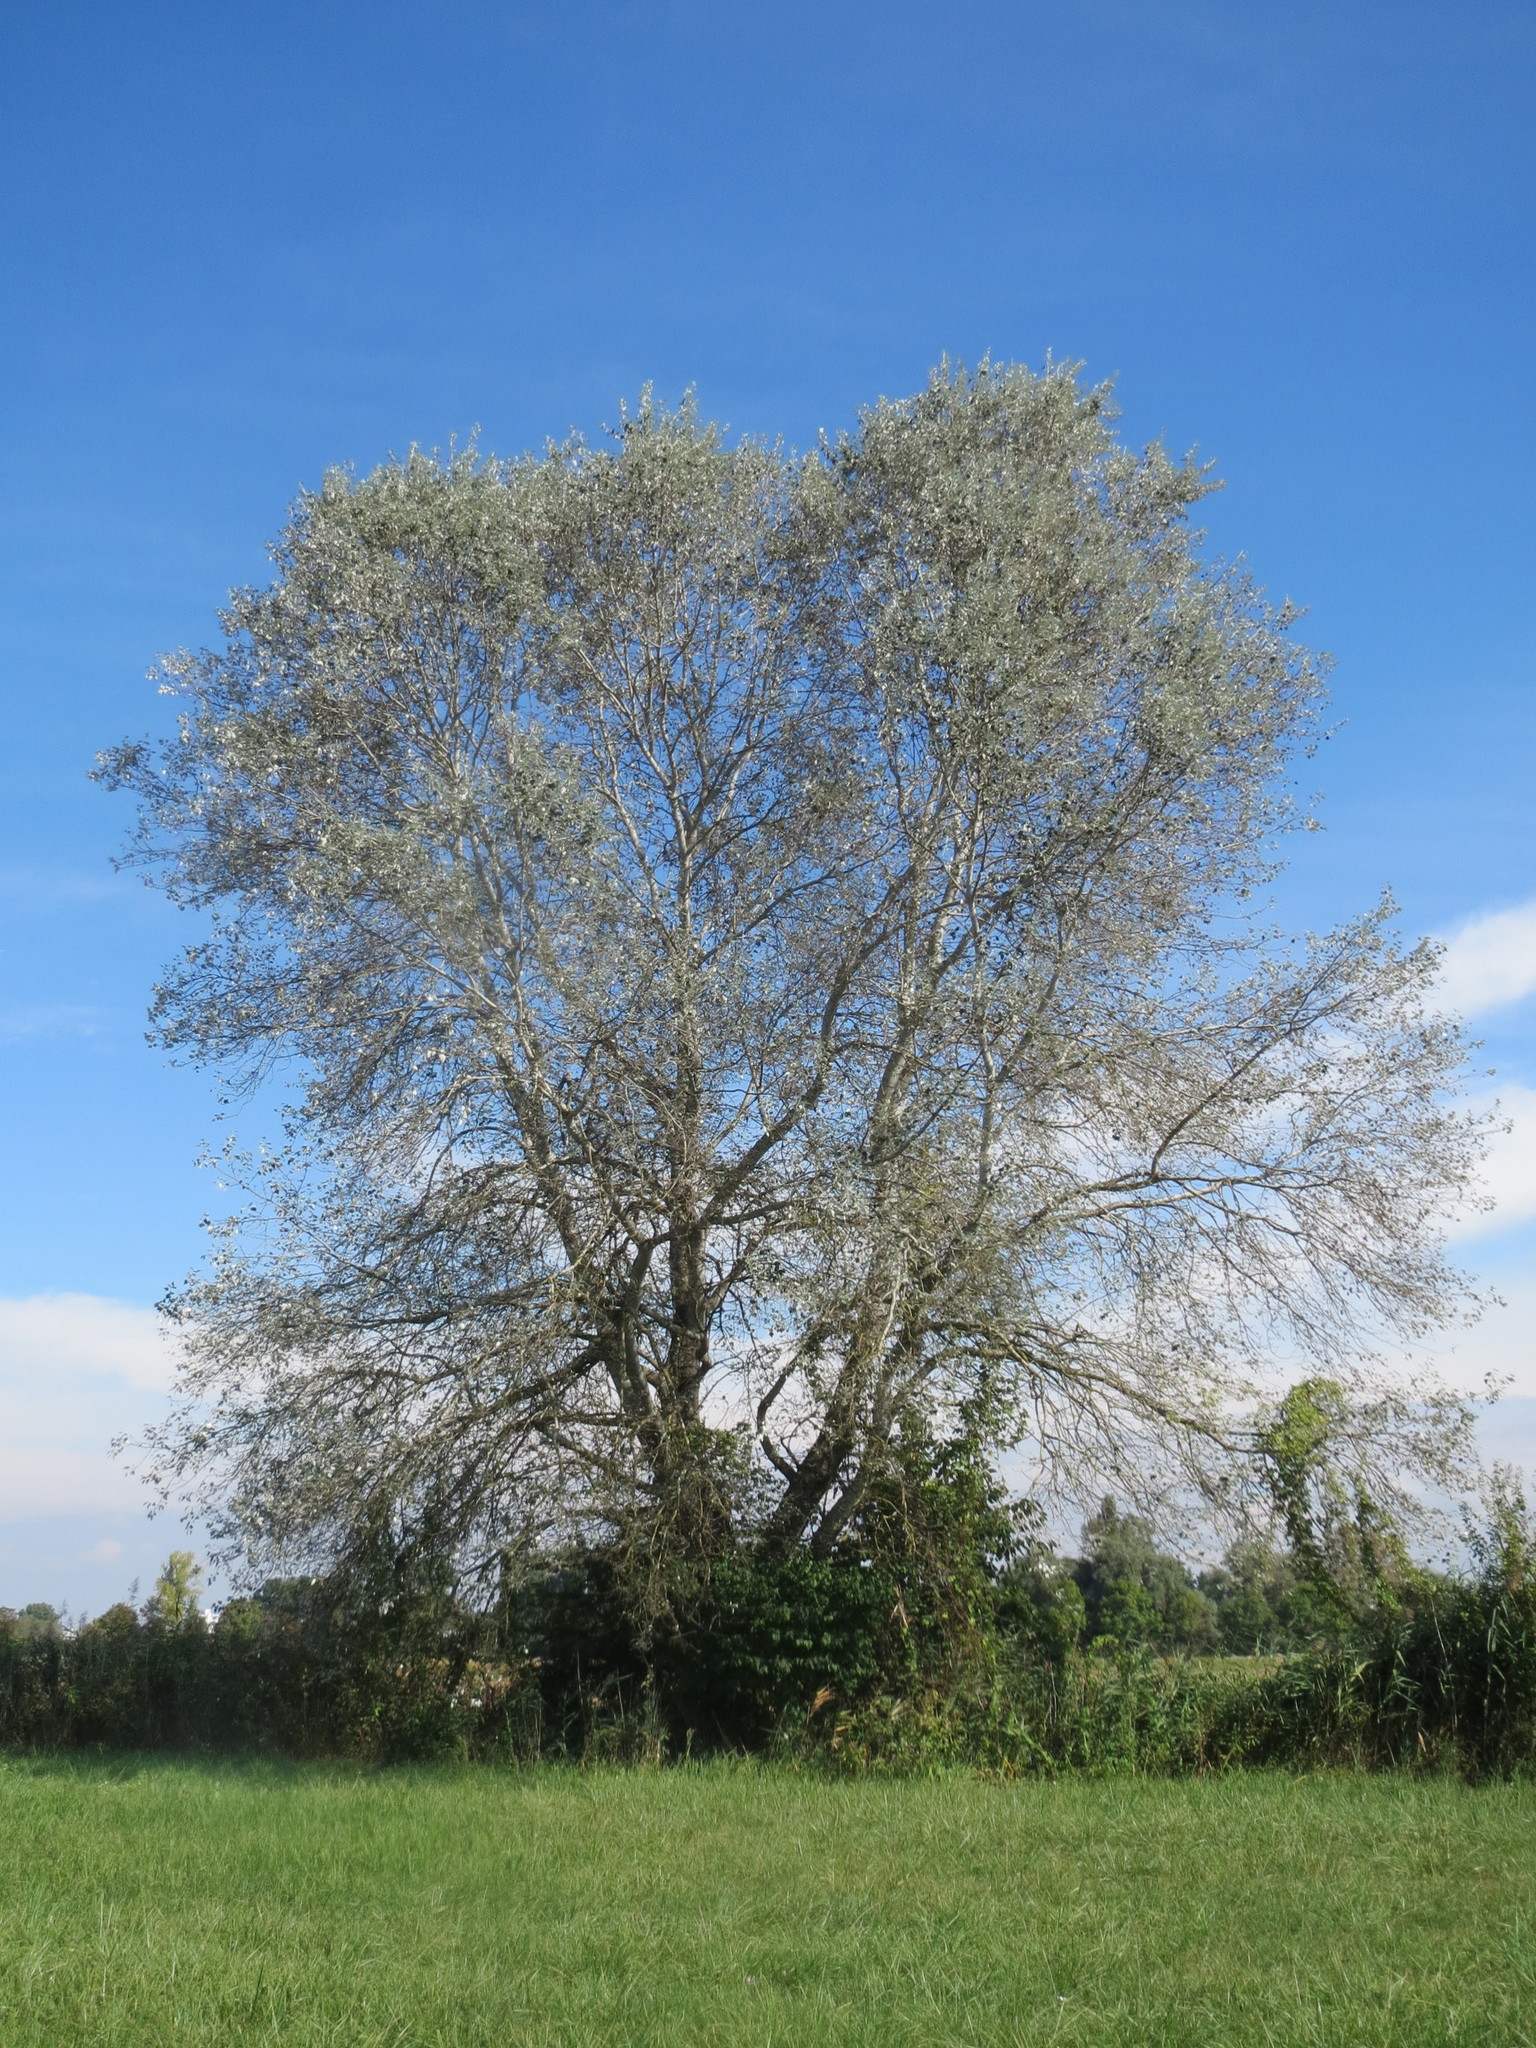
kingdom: Plantae
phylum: Tracheophyta
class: Magnoliopsida
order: Malpighiales
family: Salicaceae
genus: Populus
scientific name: Populus alba
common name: White poplar
